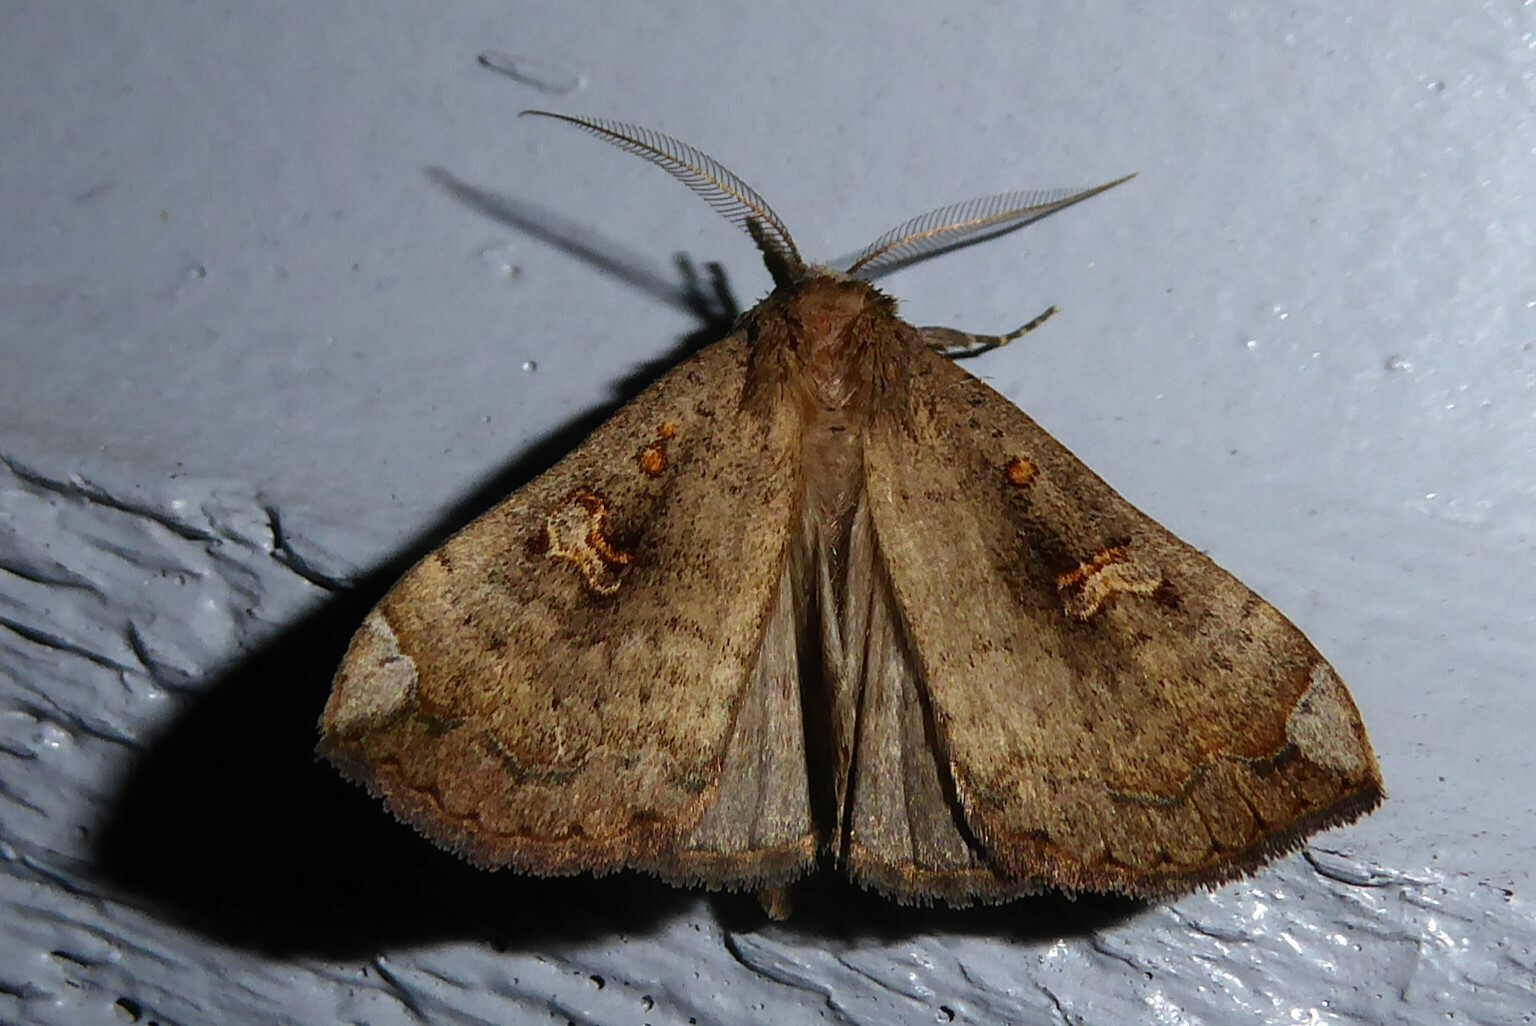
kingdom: Animalia
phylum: Arthropoda
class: Insecta
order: Lepidoptera
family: Erebidae
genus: Rhapsa
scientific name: Rhapsa scotosialis
